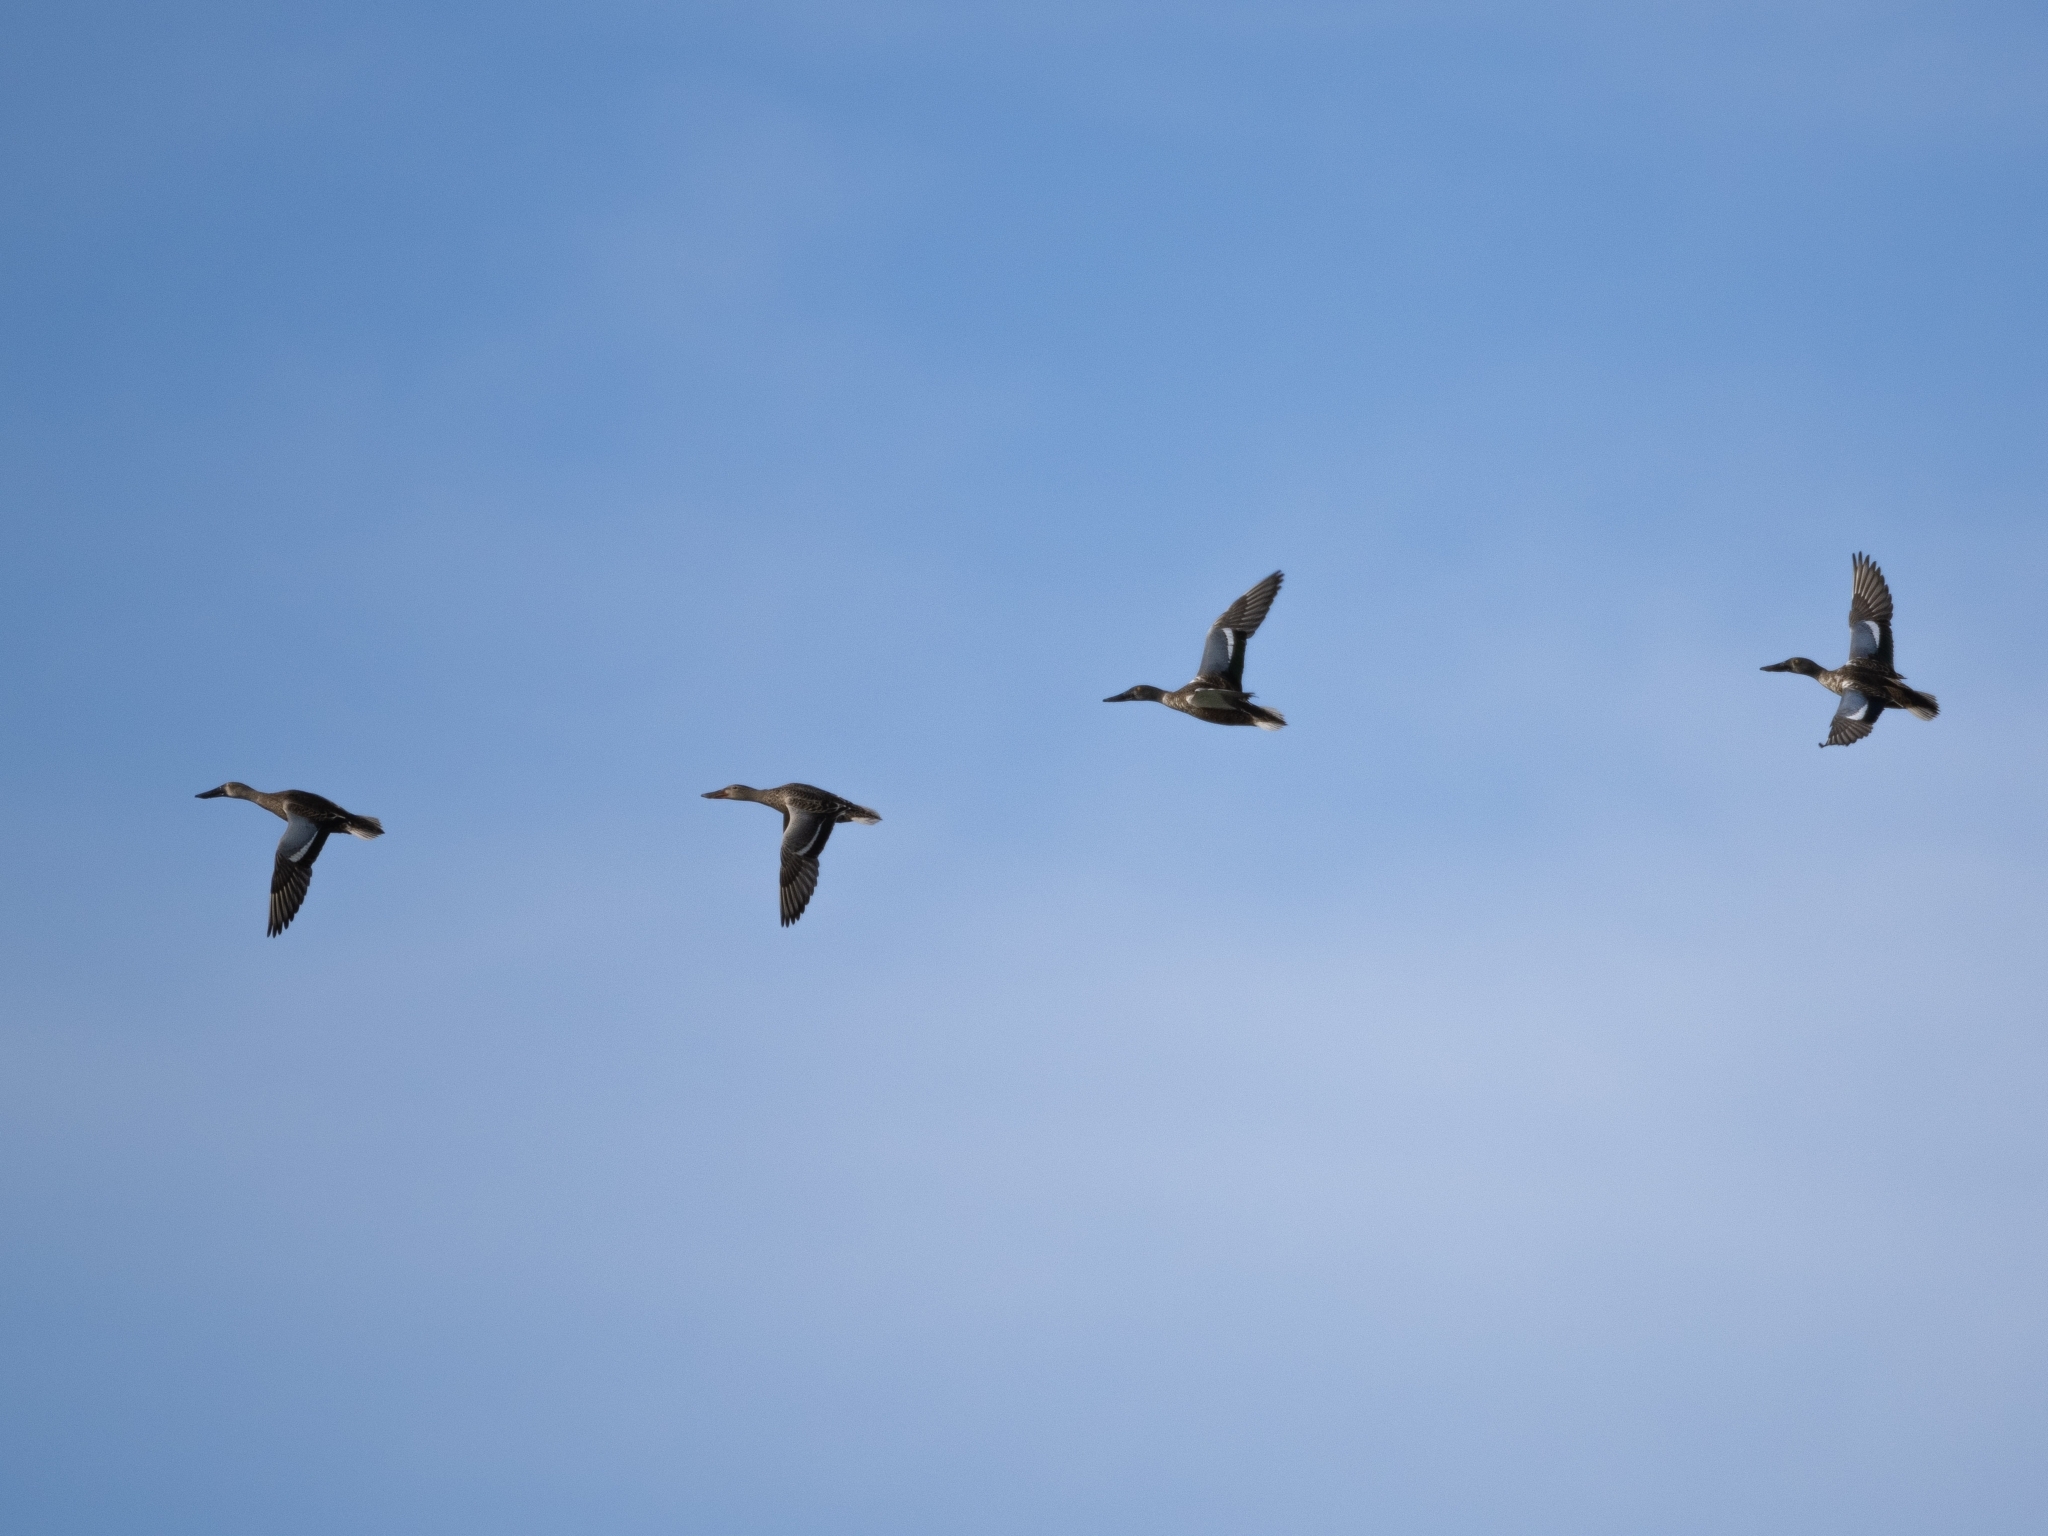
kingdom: Animalia
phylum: Chordata
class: Aves
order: Anseriformes
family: Anatidae
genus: Spatula
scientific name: Spatula clypeata
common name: Northern shoveler
